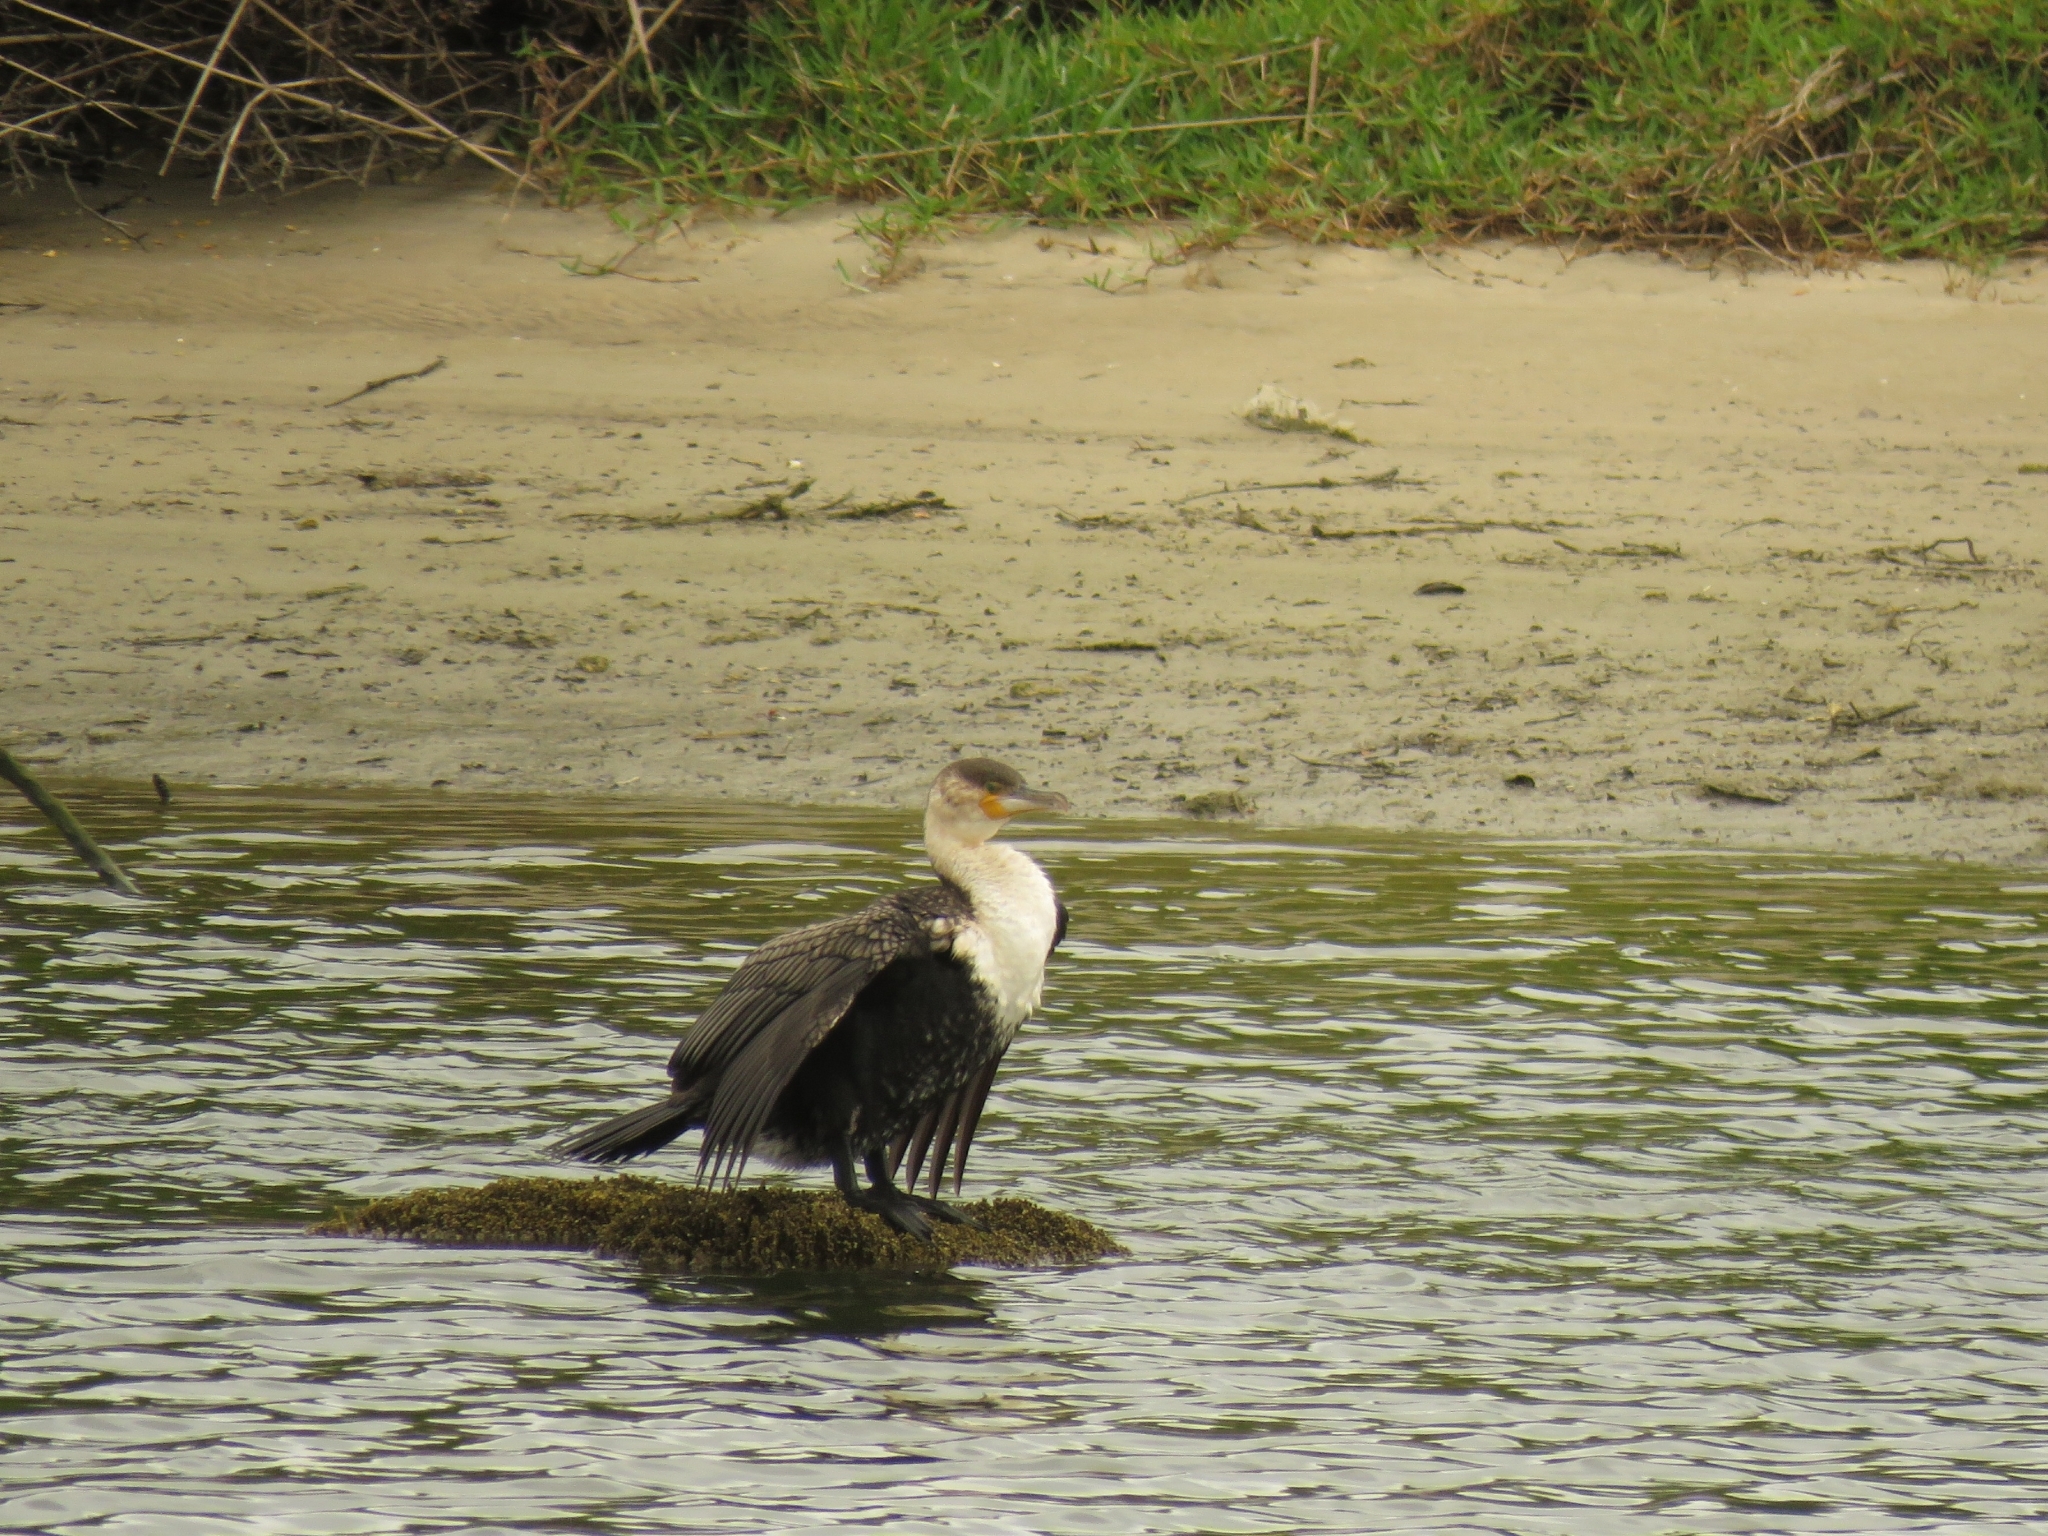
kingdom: Animalia
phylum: Chordata
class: Aves
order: Suliformes
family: Phalacrocoracidae
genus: Phalacrocorax
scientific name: Phalacrocorax carbo
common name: Great cormorant
